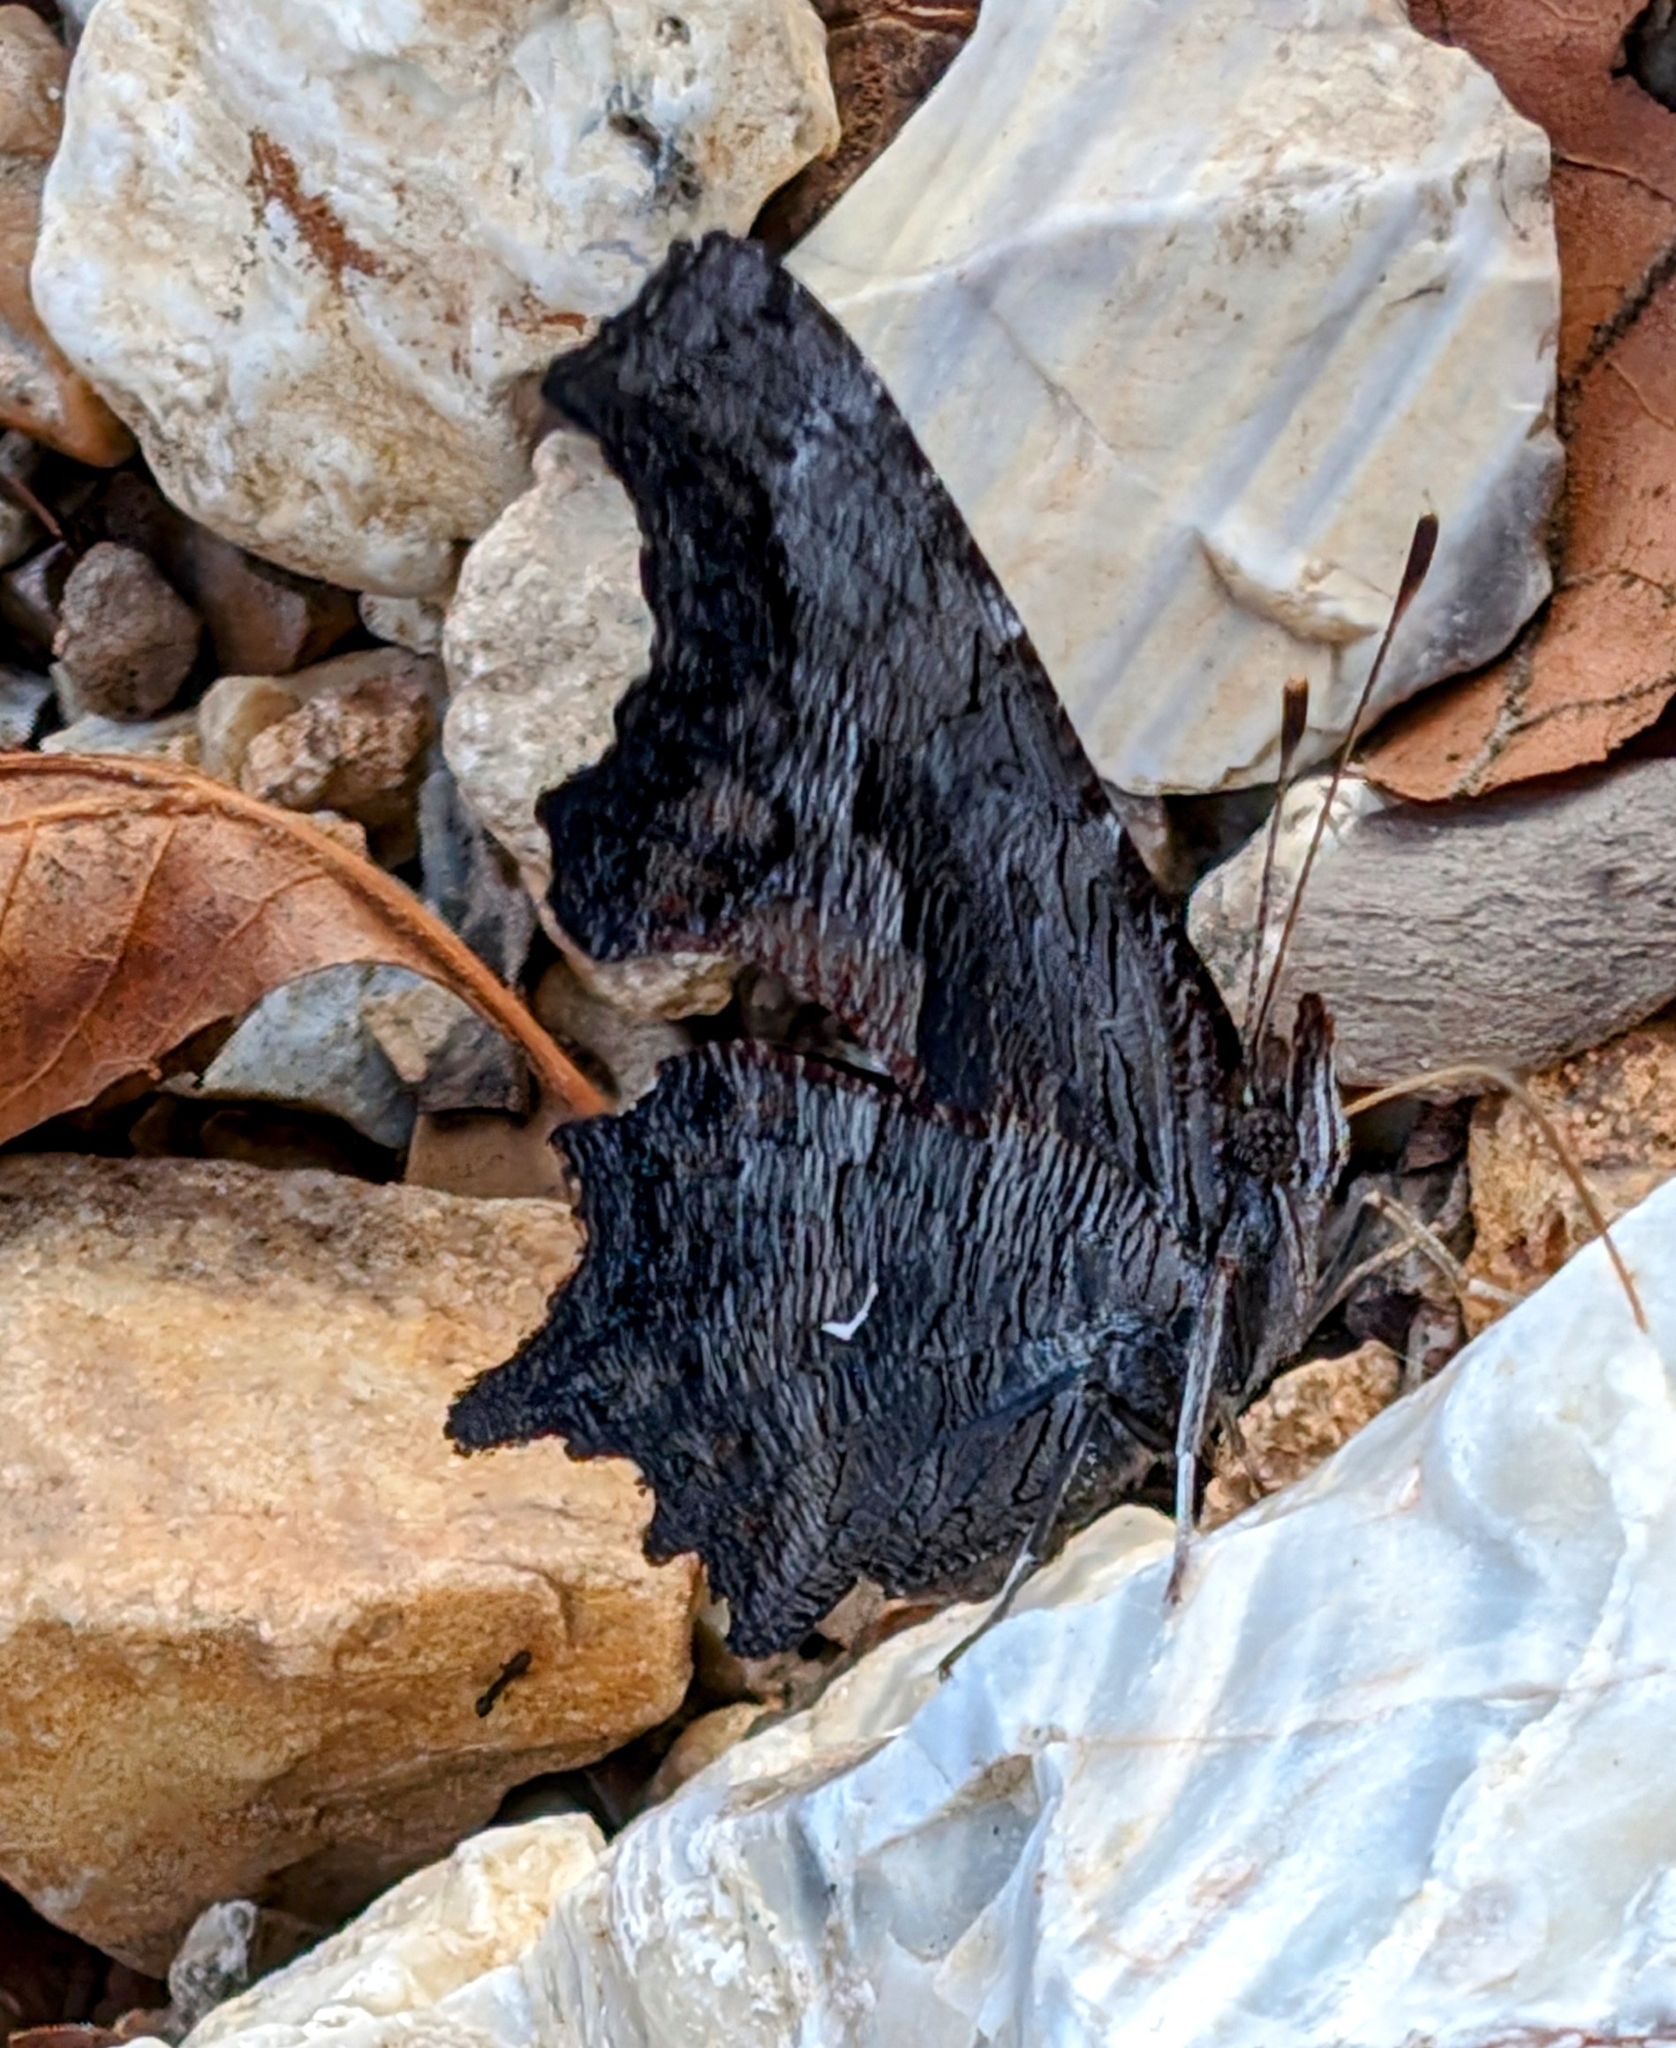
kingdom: Animalia
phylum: Arthropoda
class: Insecta
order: Lepidoptera
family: Nymphalidae
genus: Polygonia
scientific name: Polygonia progne
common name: Gray comma
